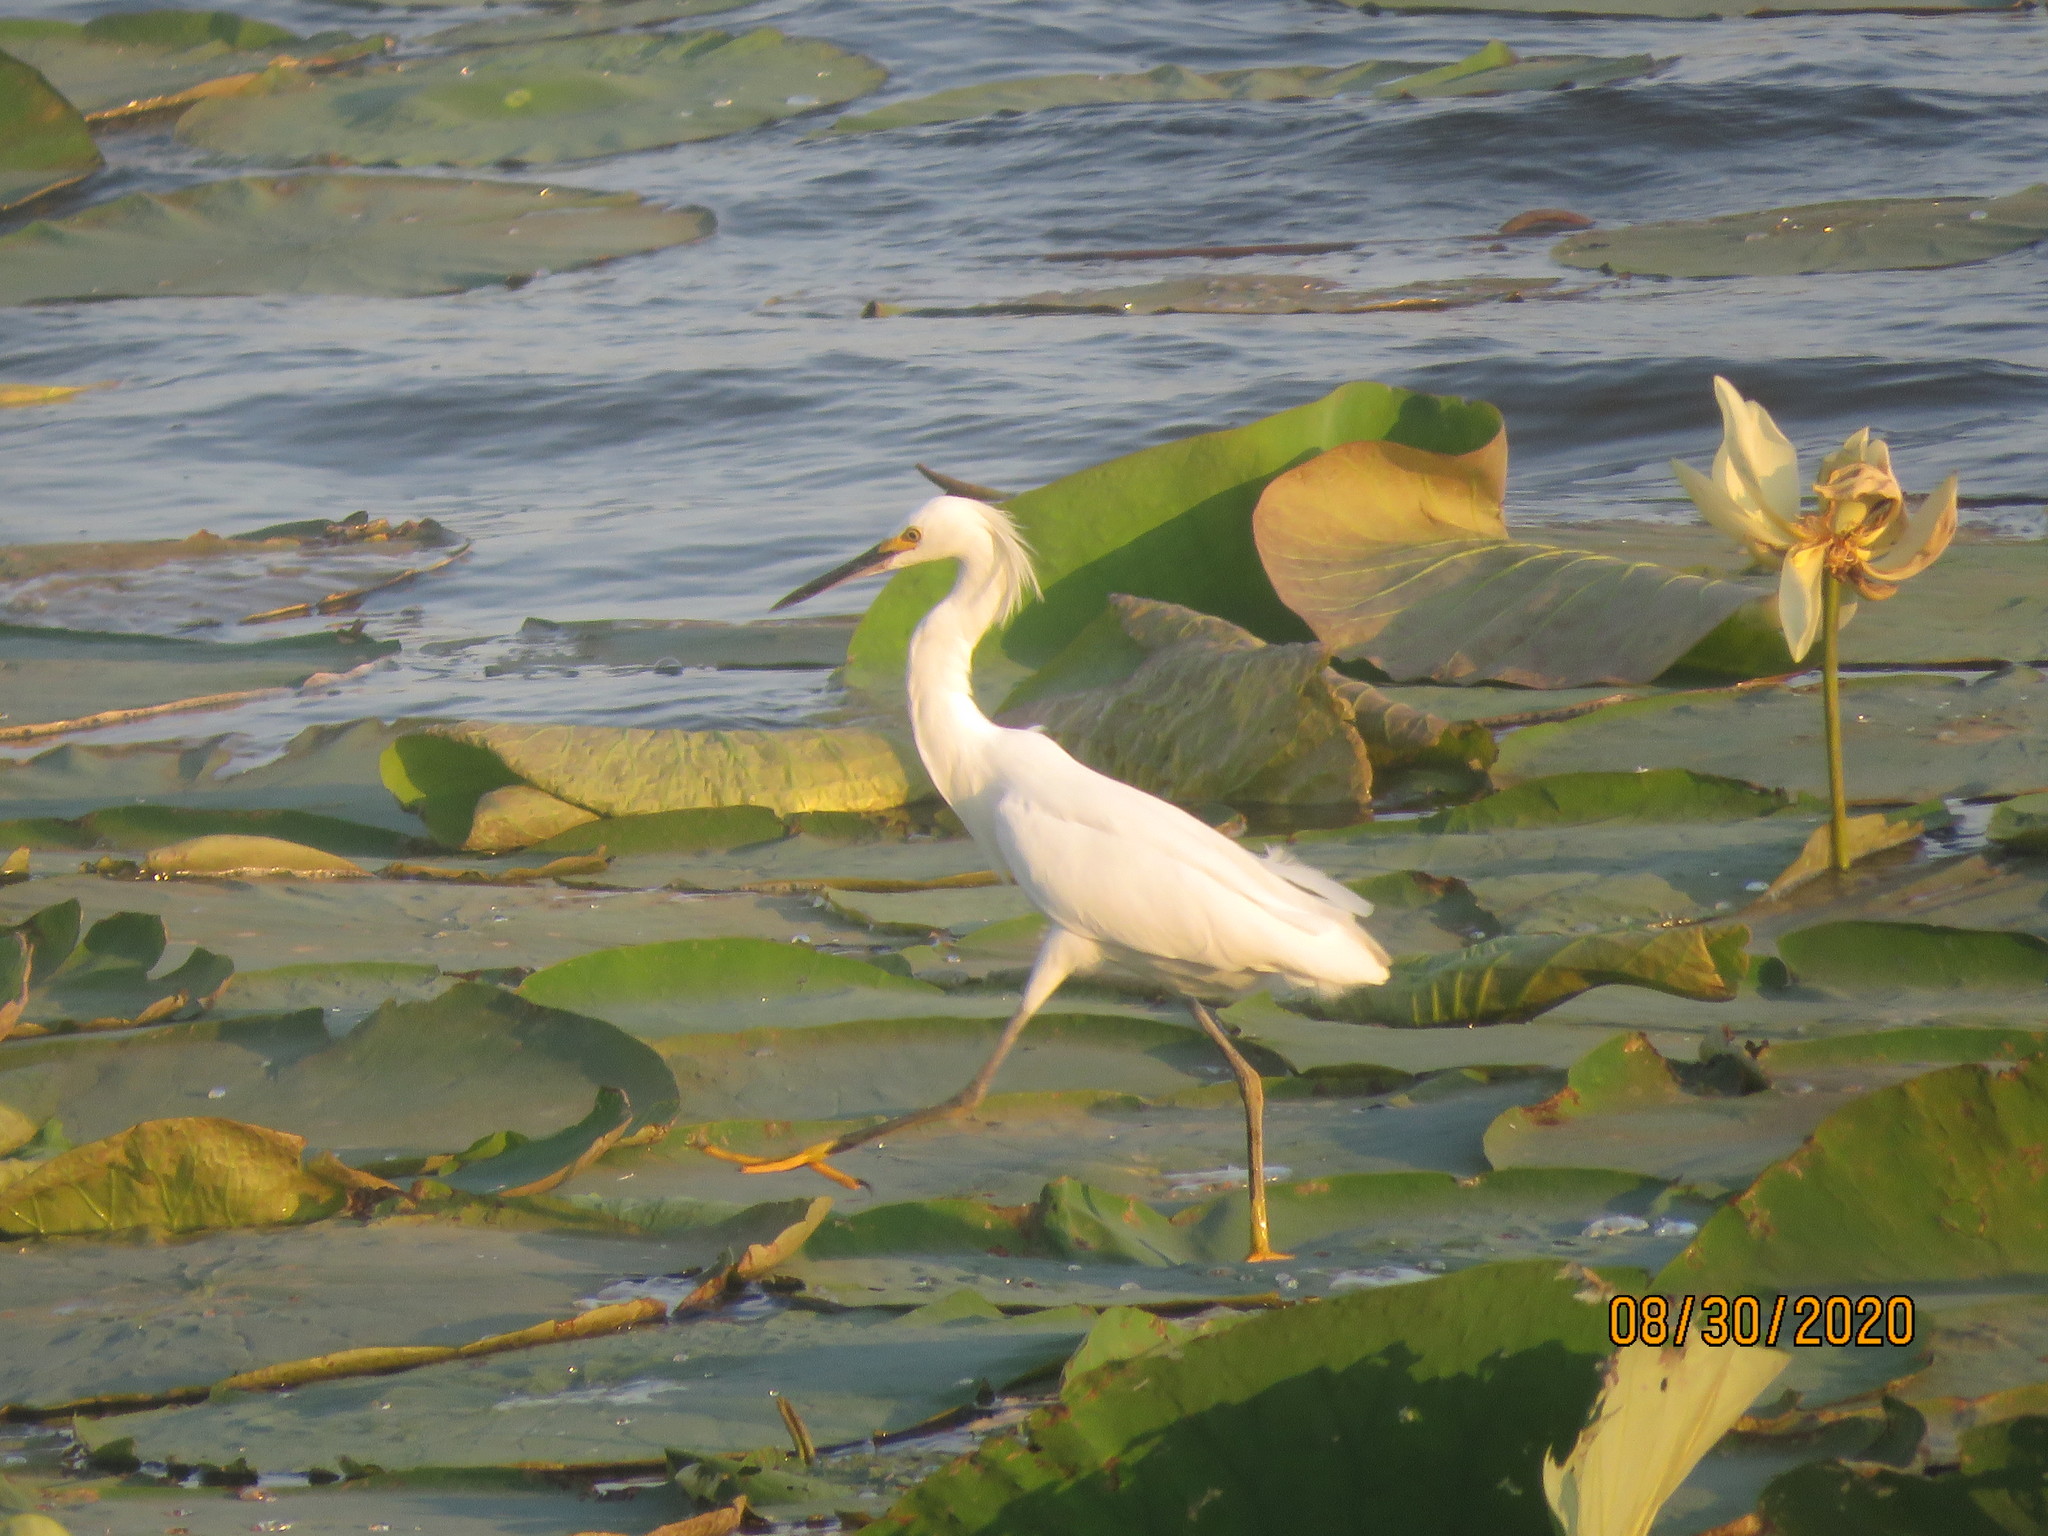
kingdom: Animalia
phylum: Chordata
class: Aves
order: Pelecaniformes
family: Ardeidae
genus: Egretta
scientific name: Egretta thula
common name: Snowy egret
